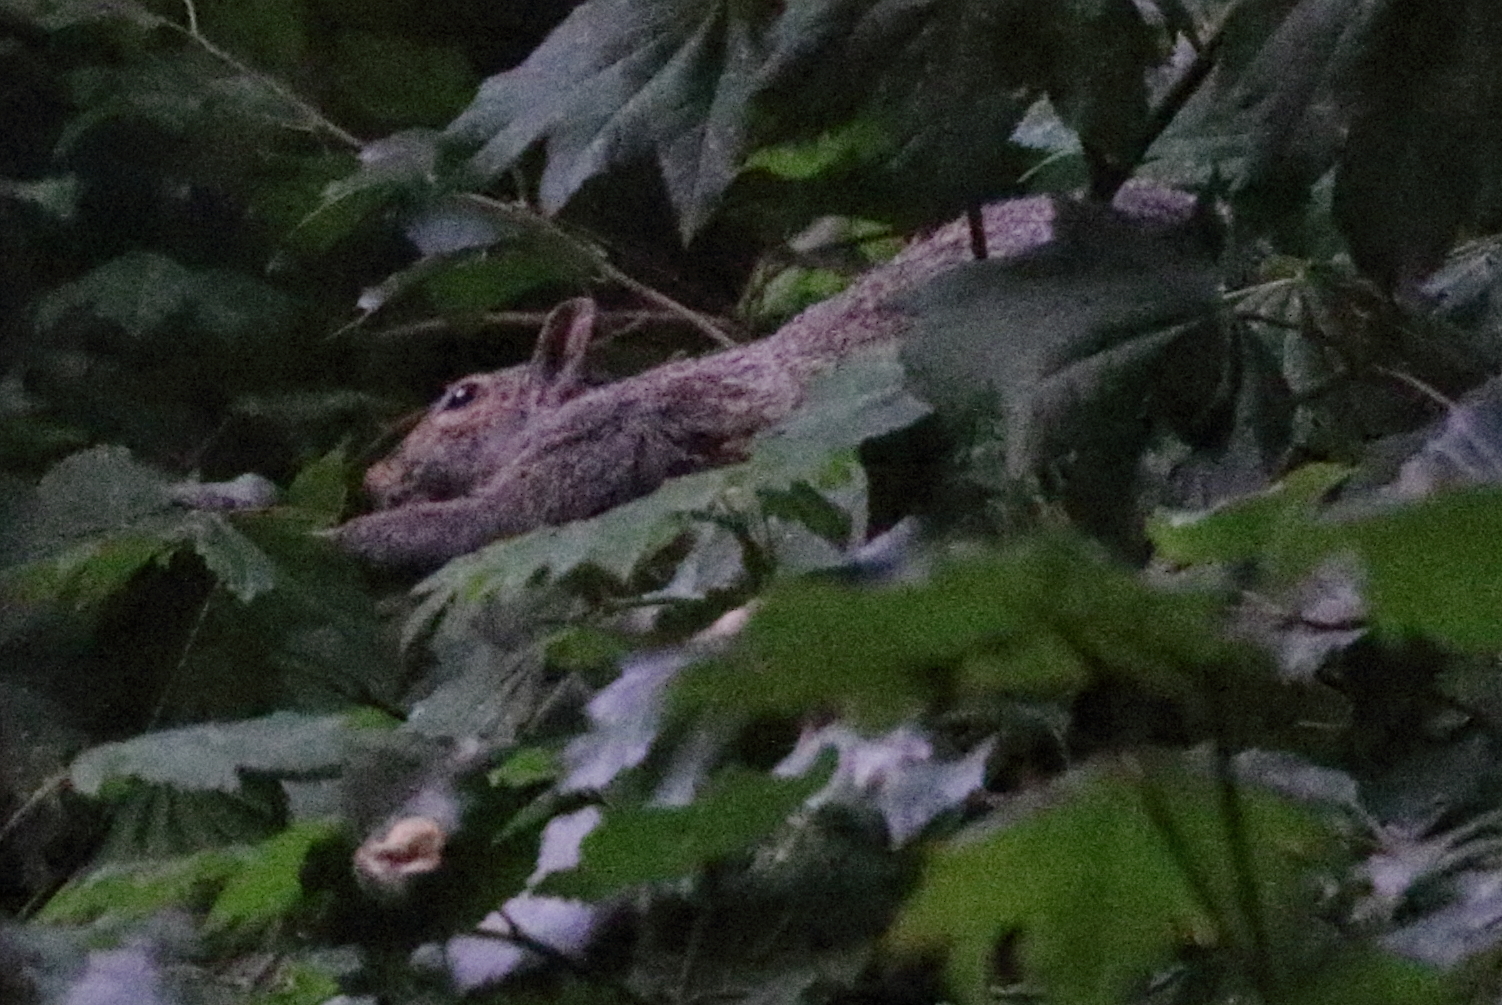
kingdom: Animalia
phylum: Chordata
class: Mammalia
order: Rodentia
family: Sciuridae
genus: Sciurus
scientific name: Sciurus carolinensis
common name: Eastern gray squirrel
